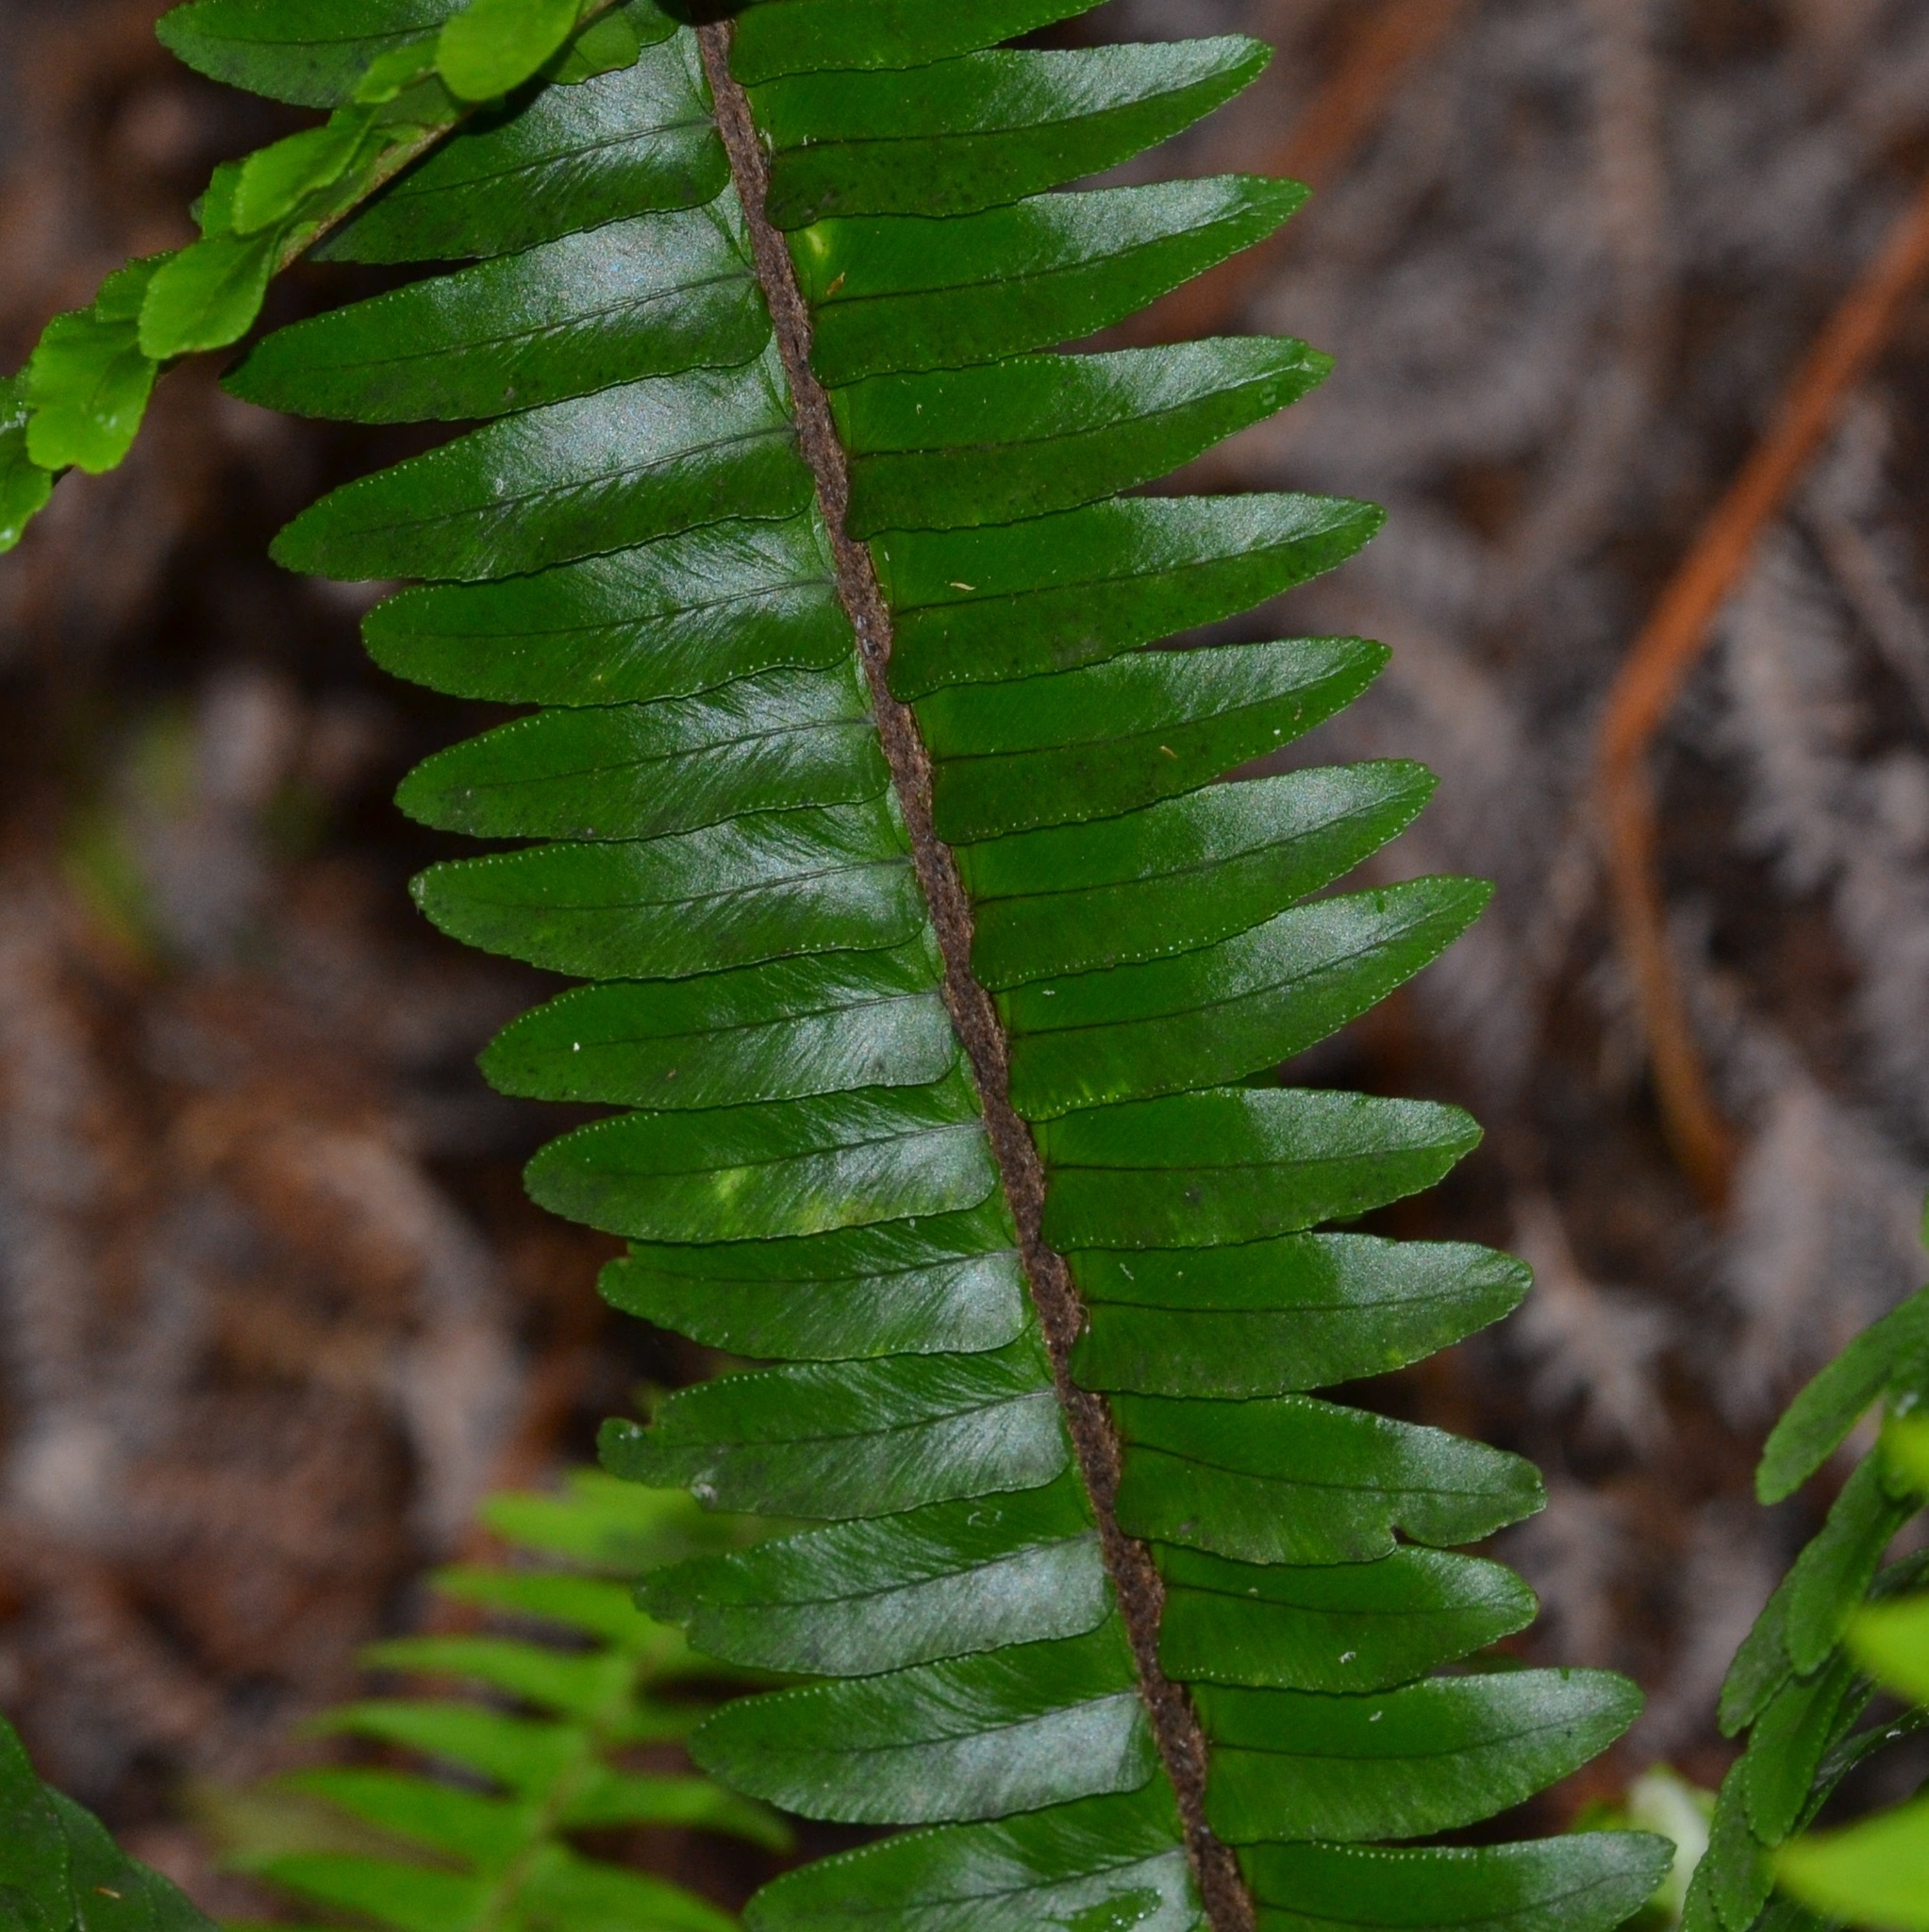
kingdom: Plantae
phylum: Tracheophyta
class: Polypodiopsida
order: Polypodiales
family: Nephrolepidaceae
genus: Nephrolepis
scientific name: Nephrolepis cordifolia
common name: Narrow swordfern
